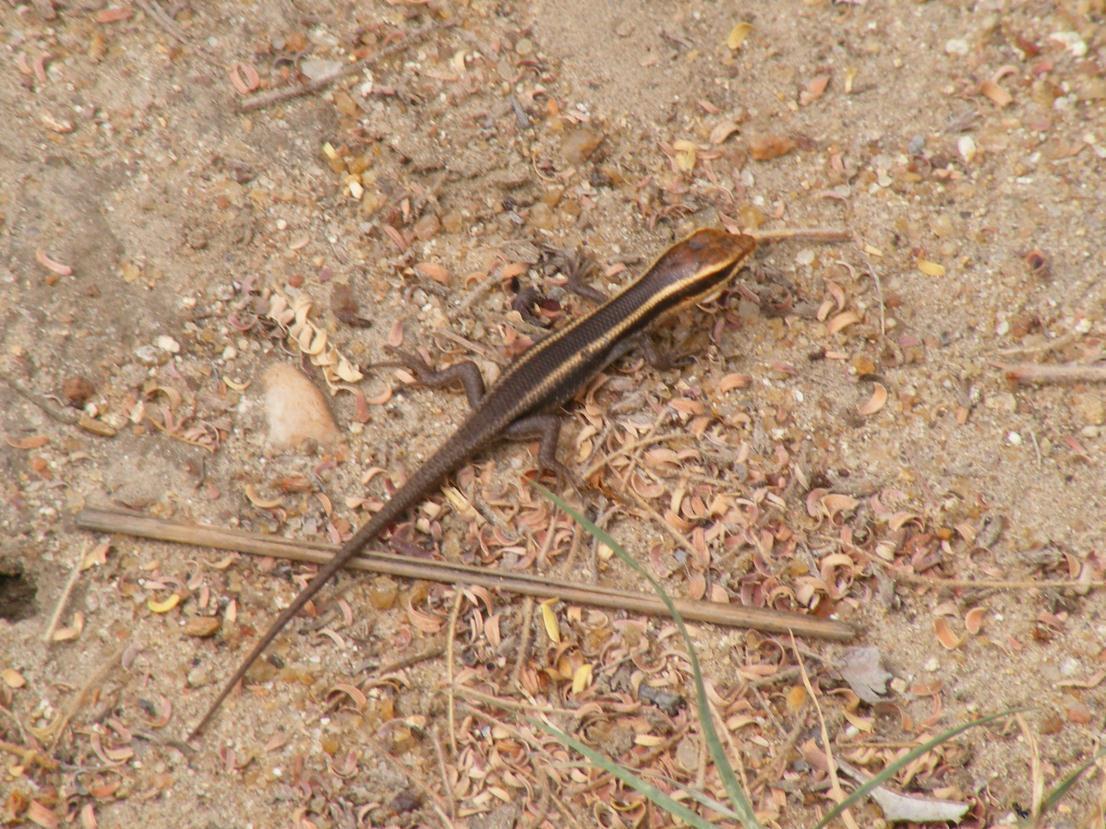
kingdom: Animalia
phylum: Chordata
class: Squamata
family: Scincidae
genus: Trachylepis
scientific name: Trachylepis striata
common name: African striped mabuya
